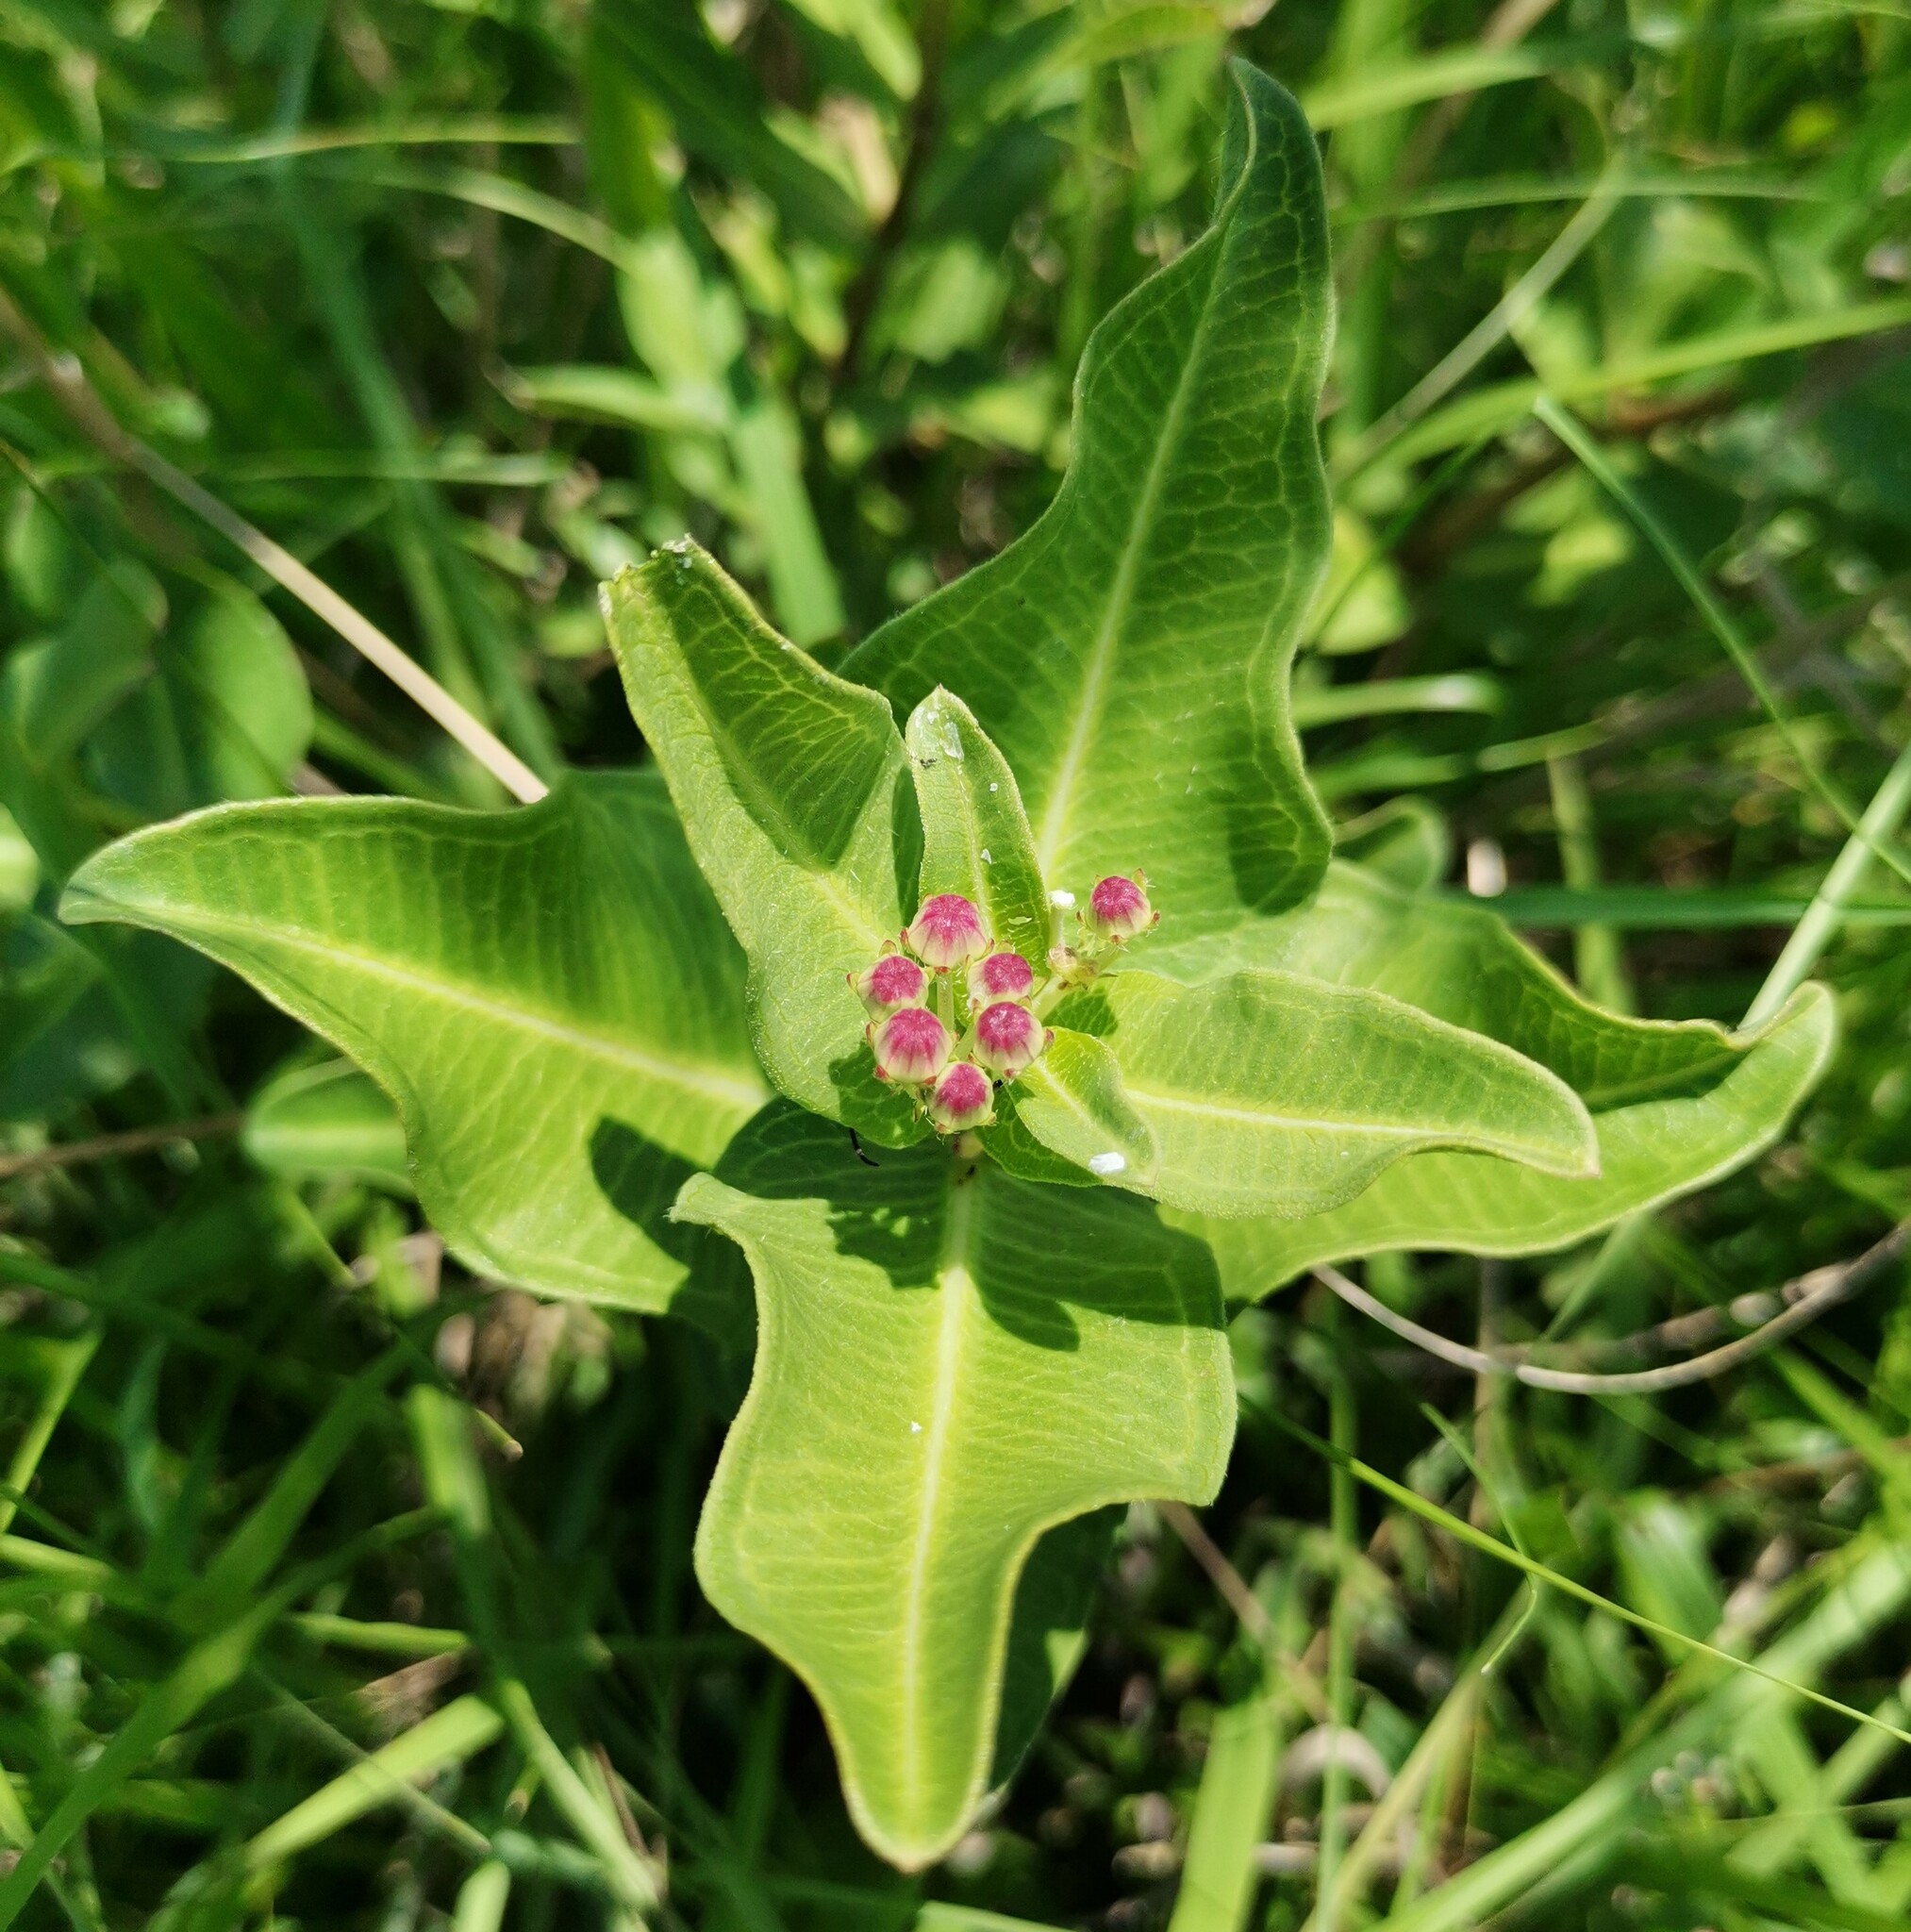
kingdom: Plantae
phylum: Tracheophyta
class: Magnoliopsida
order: Gentianales
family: Apocynaceae
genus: Asclepias
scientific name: Asclepias pratensis
